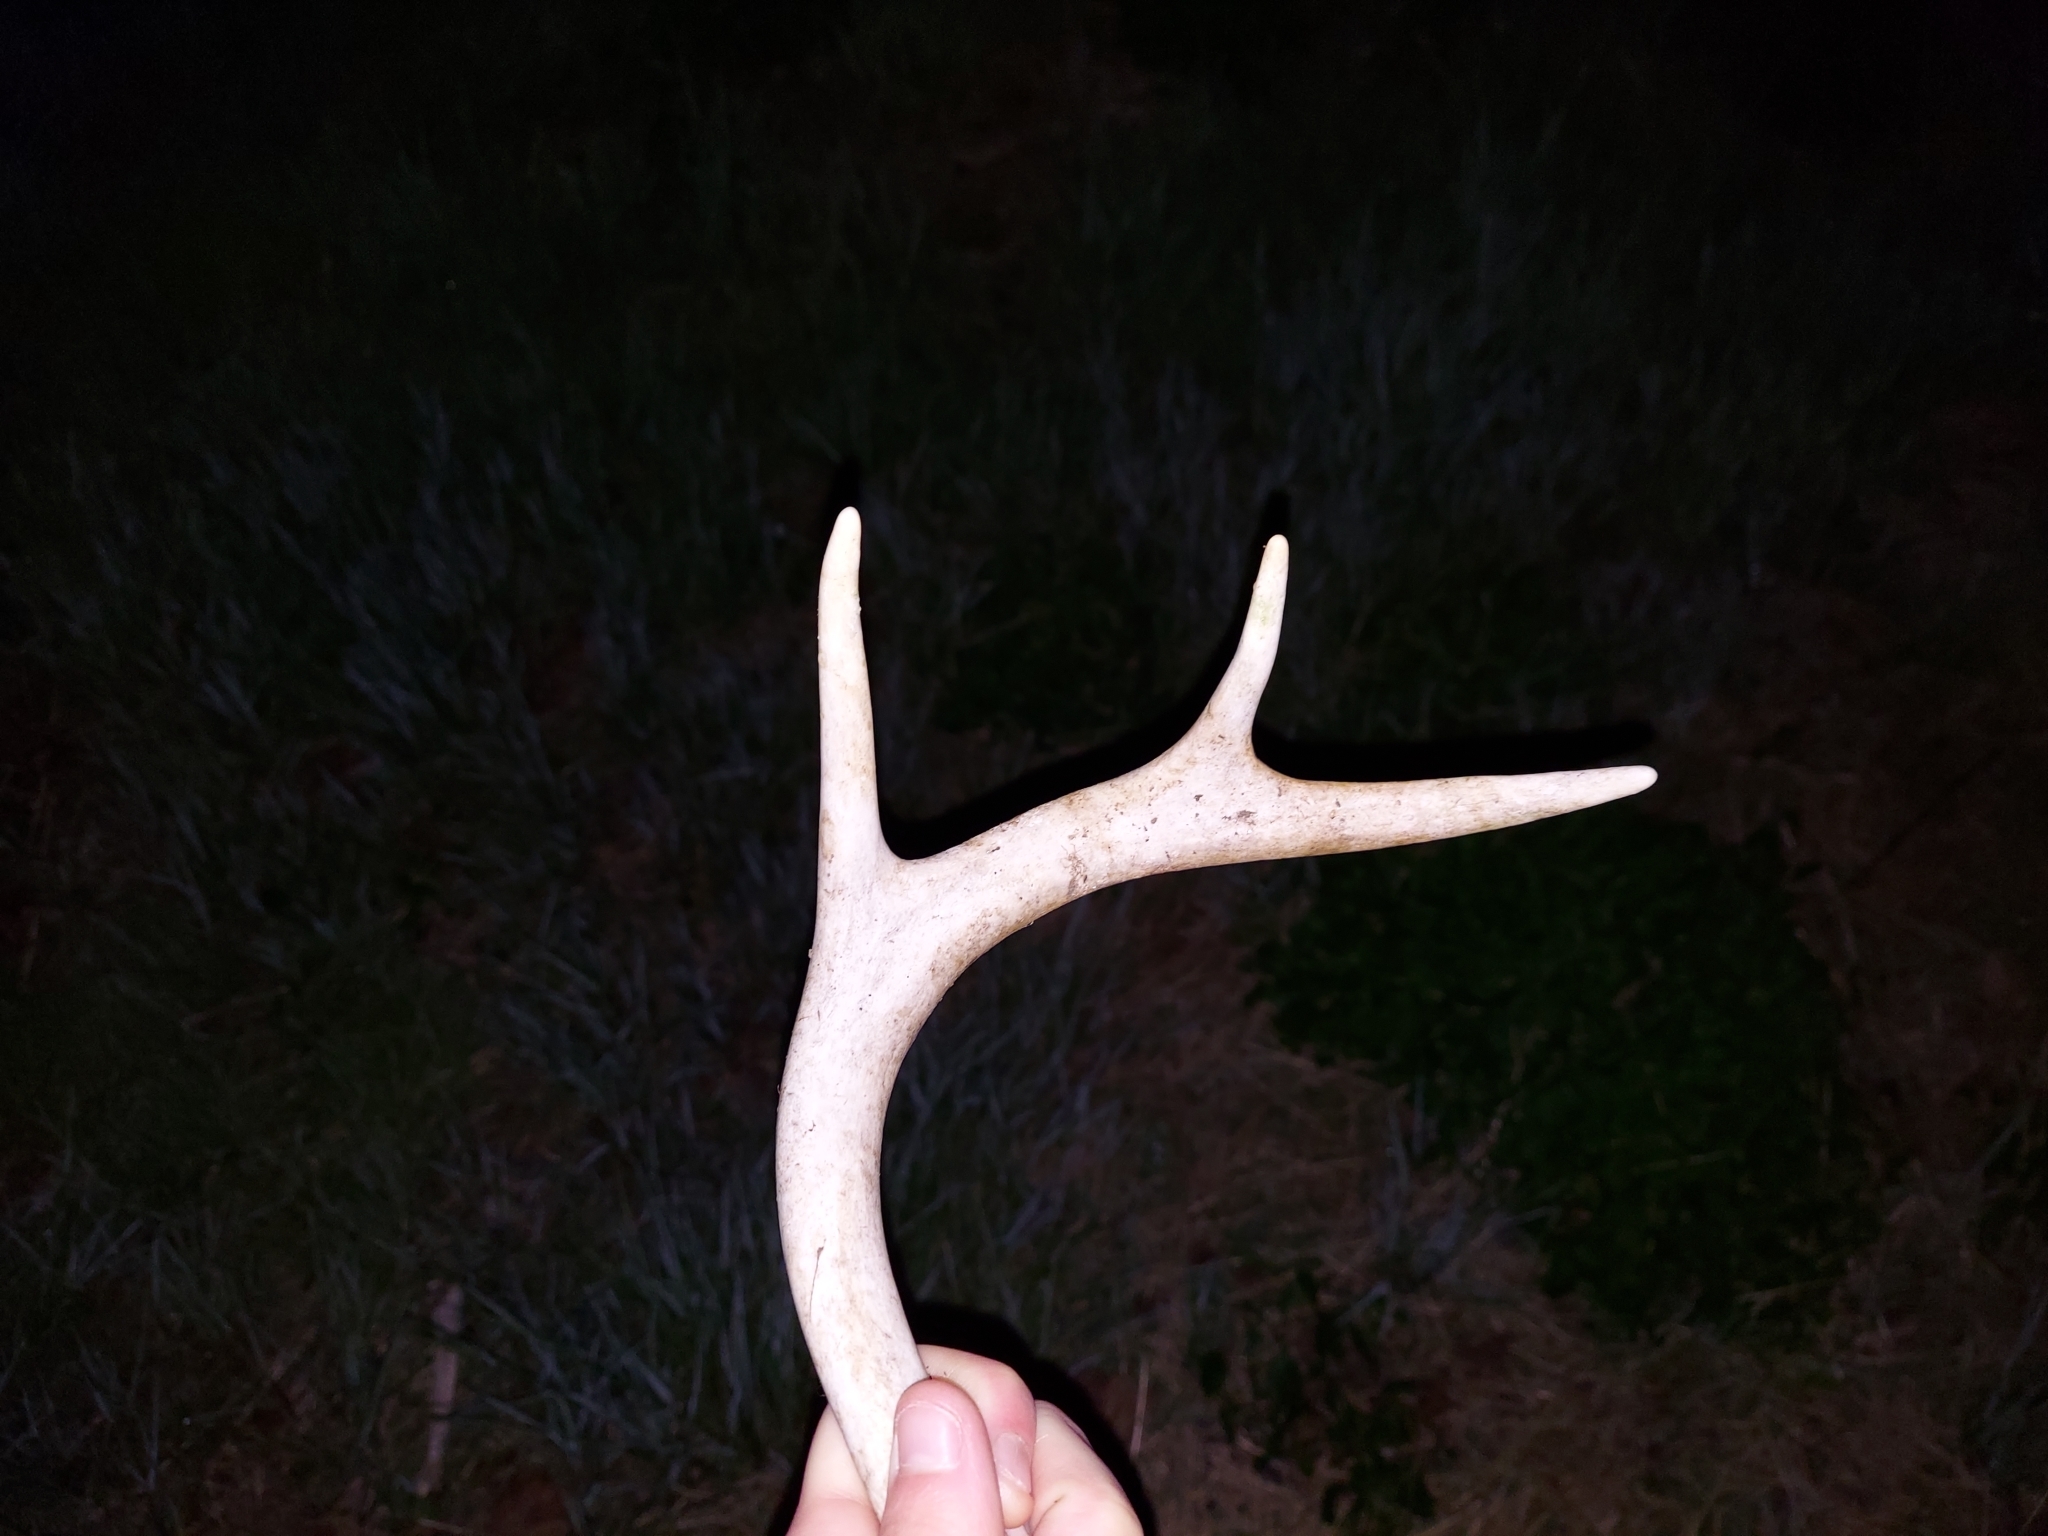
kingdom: Animalia
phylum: Chordata
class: Mammalia
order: Artiodactyla
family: Cervidae
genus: Odocoileus
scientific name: Odocoileus virginianus
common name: White-tailed deer
